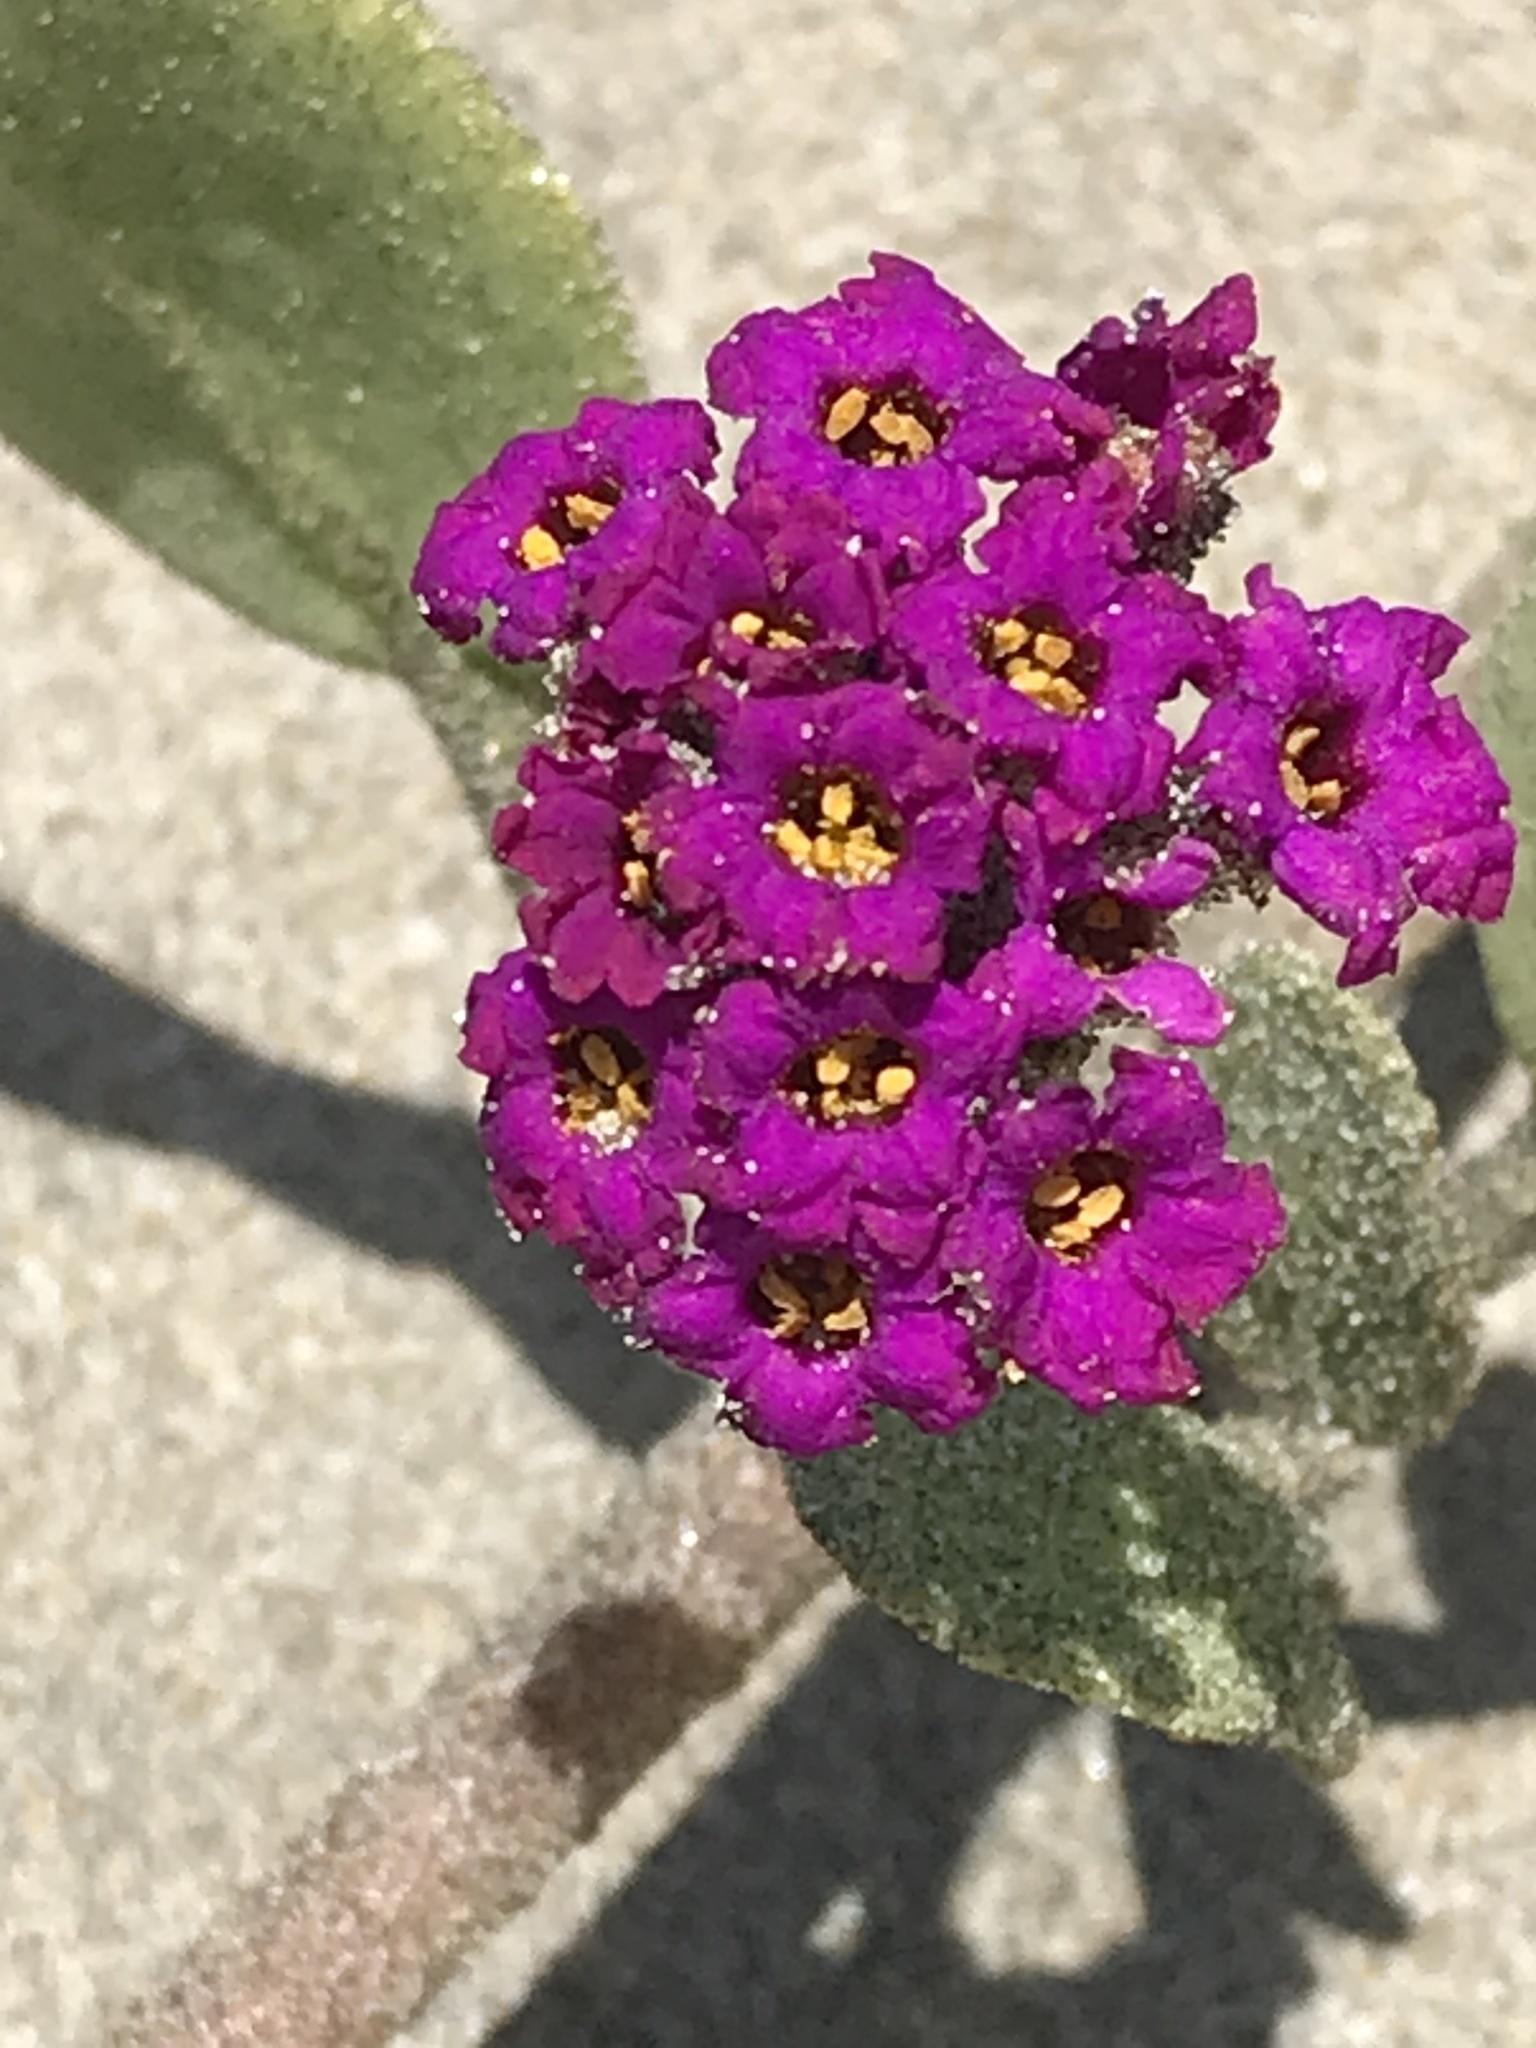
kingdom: Plantae
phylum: Tracheophyta
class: Magnoliopsida
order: Caryophyllales
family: Nyctaginaceae
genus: Abronia
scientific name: Abronia maritima
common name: Red sand-verbena
